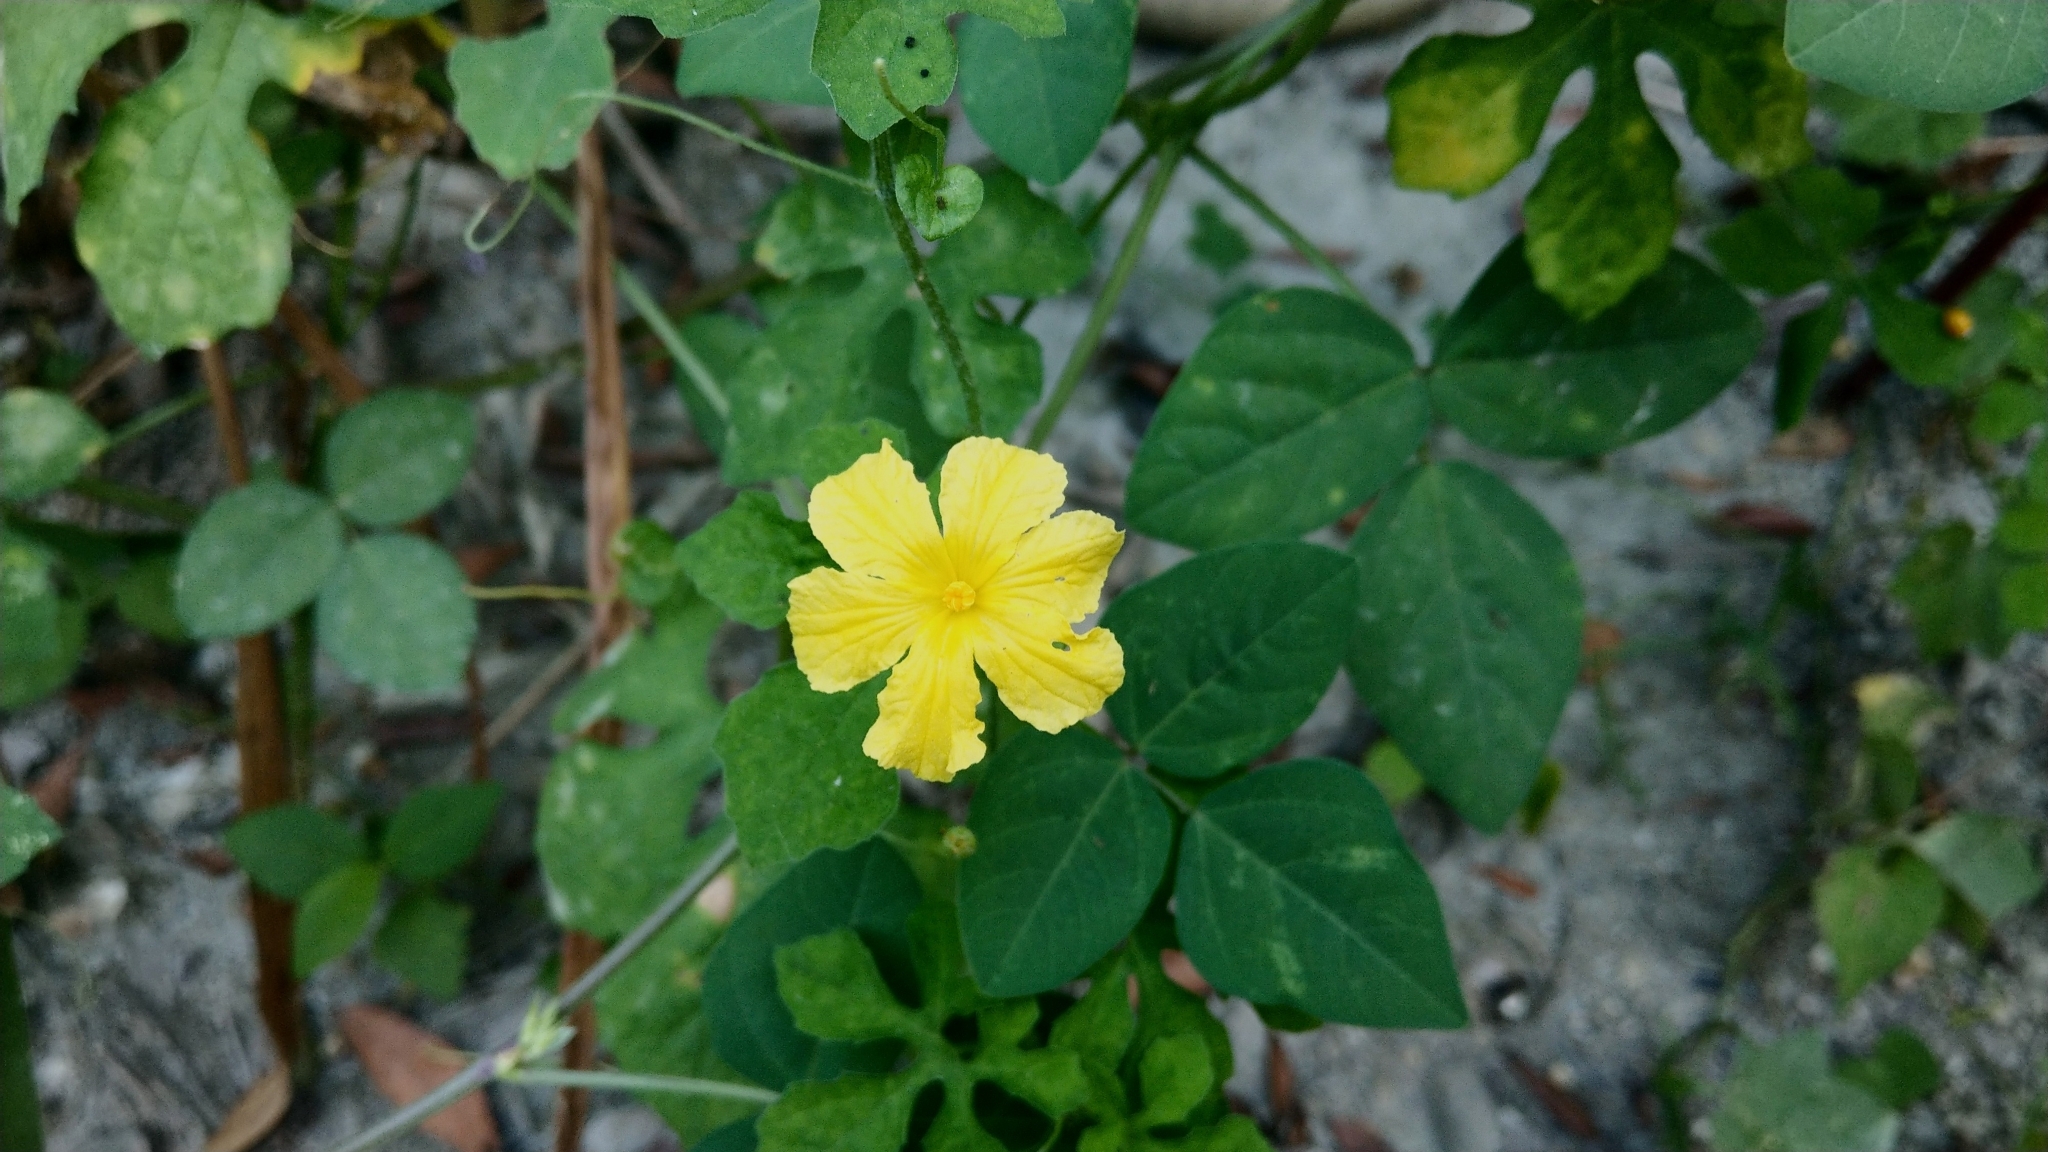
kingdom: Plantae
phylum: Tracheophyta
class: Magnoliopsida
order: Cucurbitales
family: Cucurbitaceae
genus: Momordica
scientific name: Momordica charantia
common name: Balsampear
